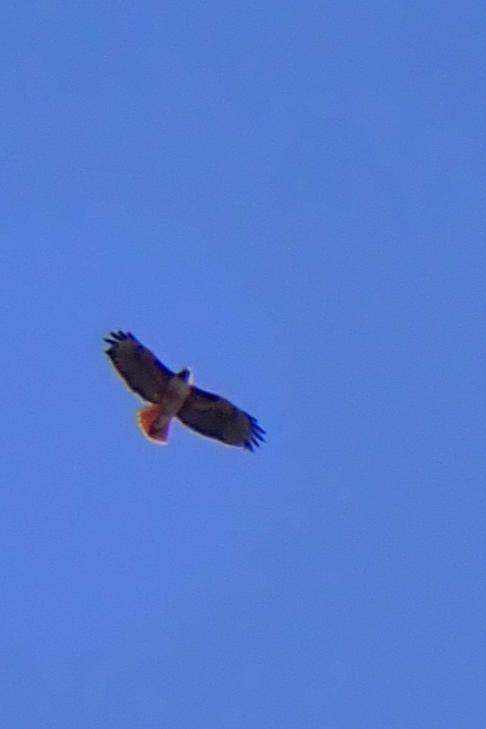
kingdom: Animalia
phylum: Chordata
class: Aves
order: Accipitriformes
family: Accipitridae
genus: Buteo
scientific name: Buteo jamaicensis
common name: Red-tailed hawk
